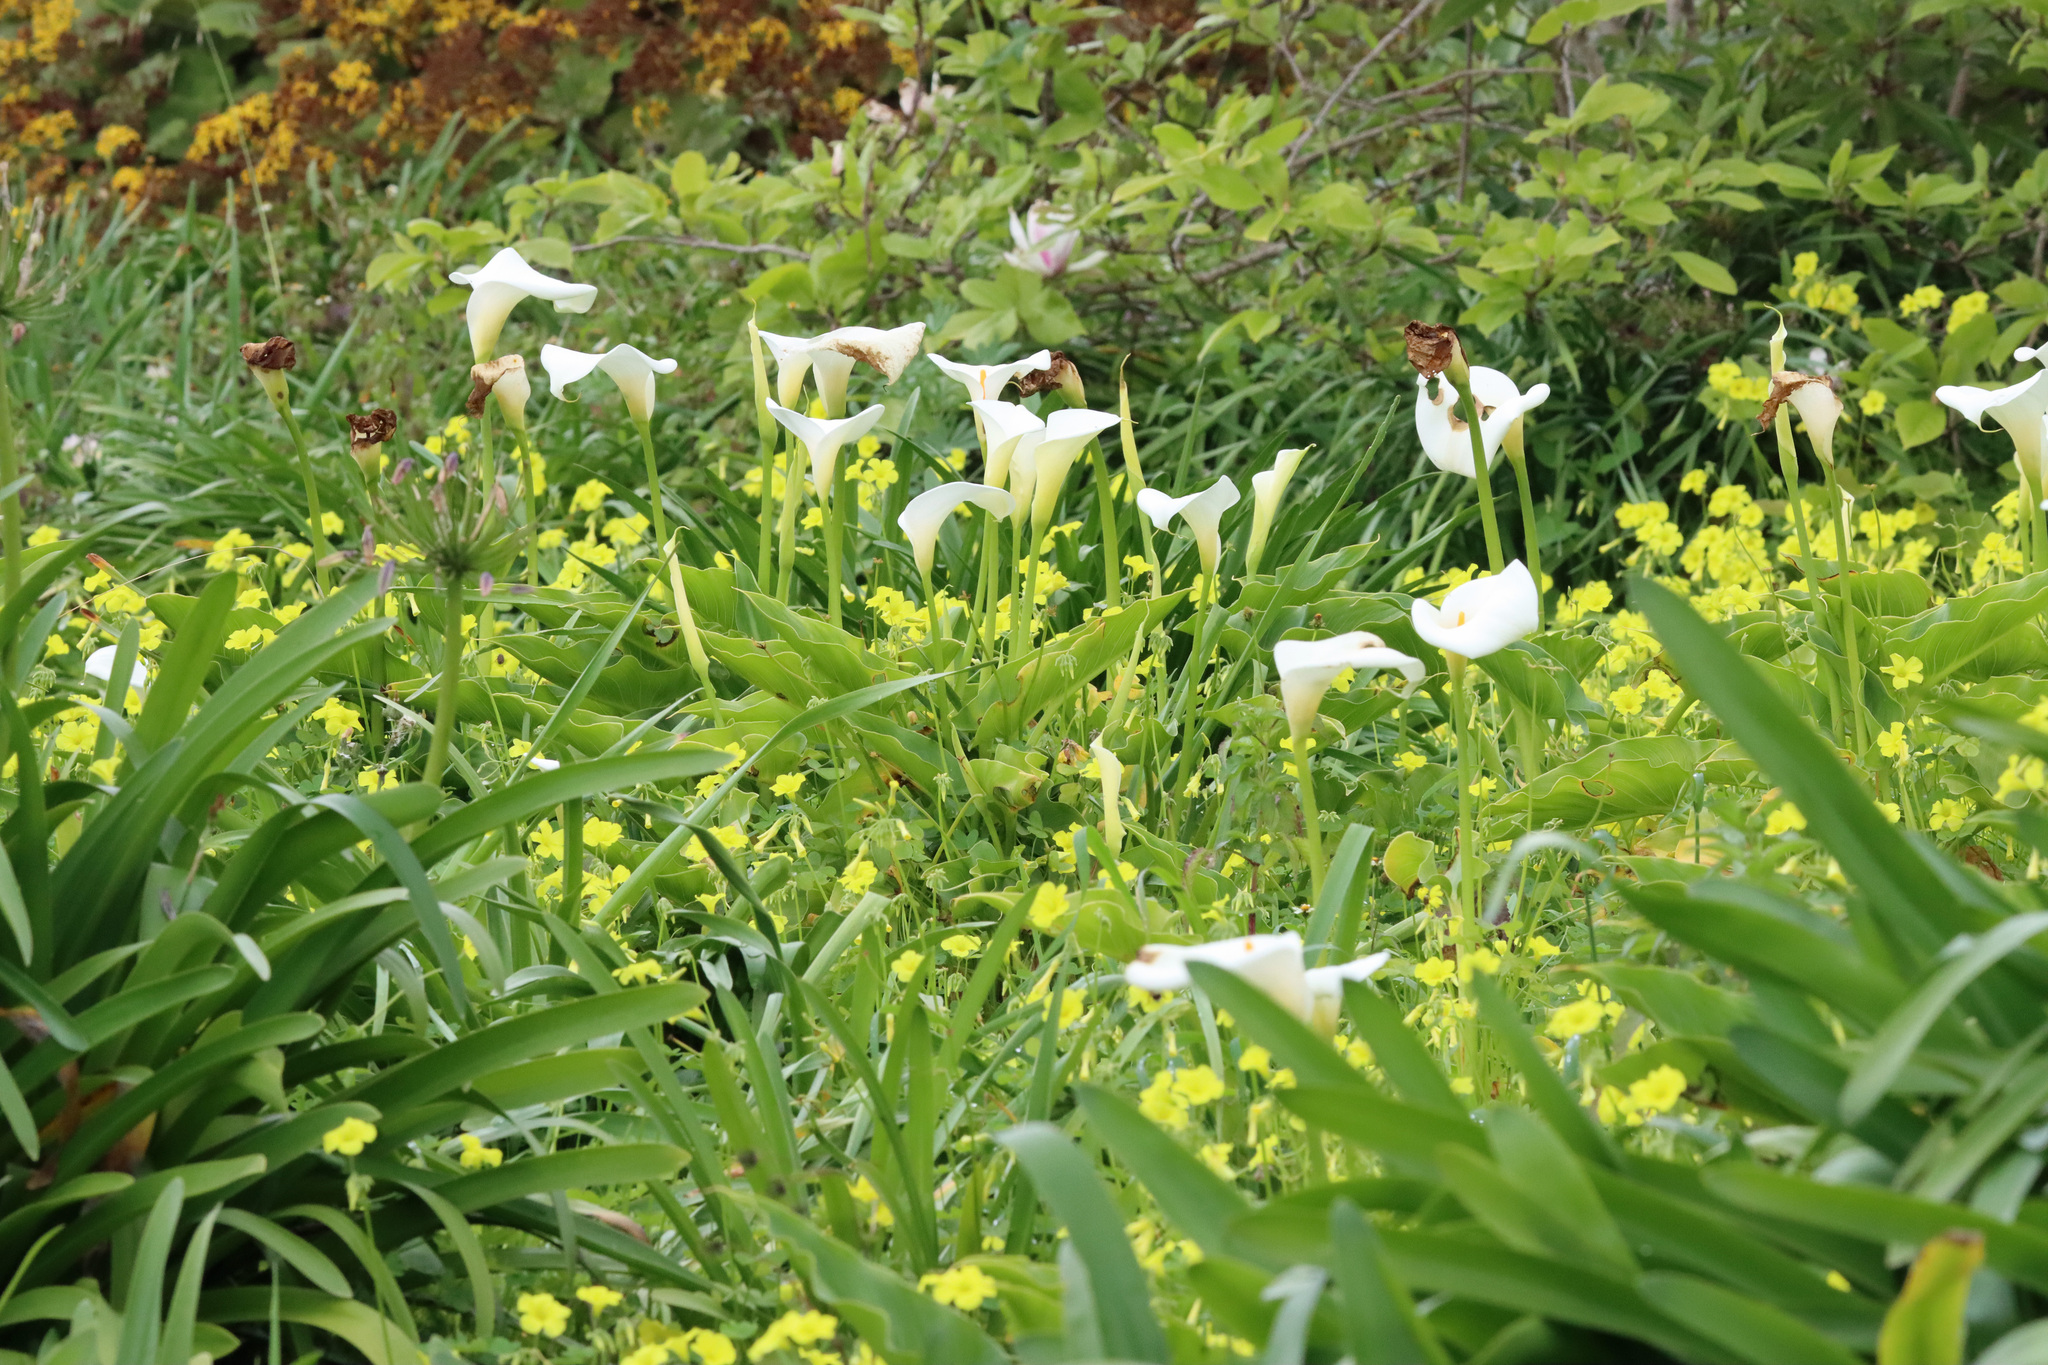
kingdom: Plantae
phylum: Tracheophyta
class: Liliopsida
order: Alismatales
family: Araceae
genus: Zantedeschia
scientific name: Zantedeschia aethiopica
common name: Altar-lily
